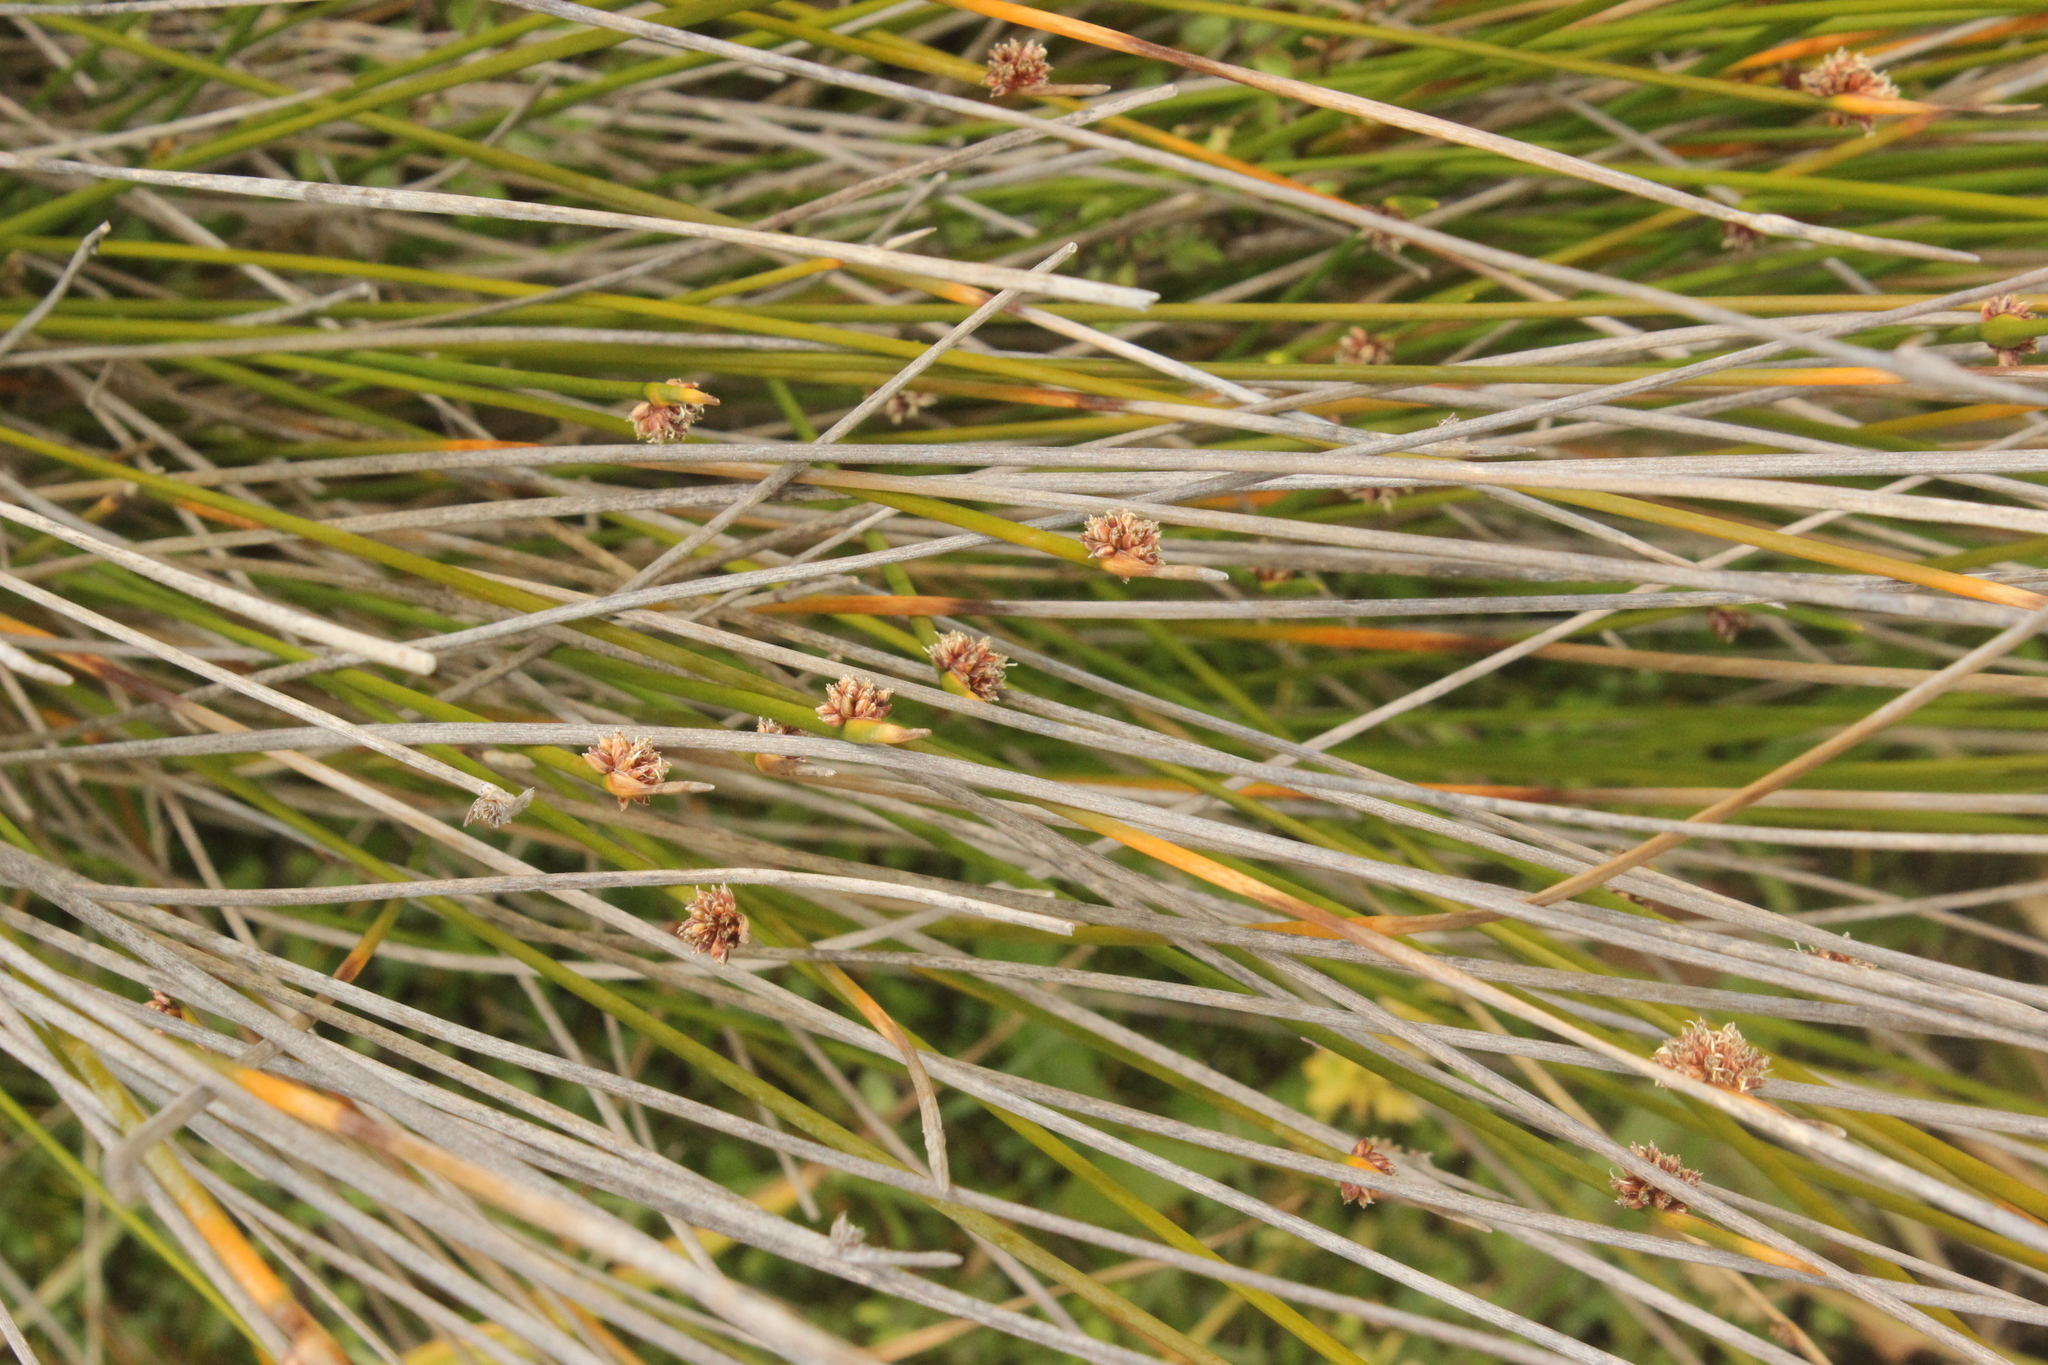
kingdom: Plantae
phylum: Tracheophyta
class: Liliopsida
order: Poales
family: Cyperaceae
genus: Ficinia
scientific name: Ficinia nodosa
